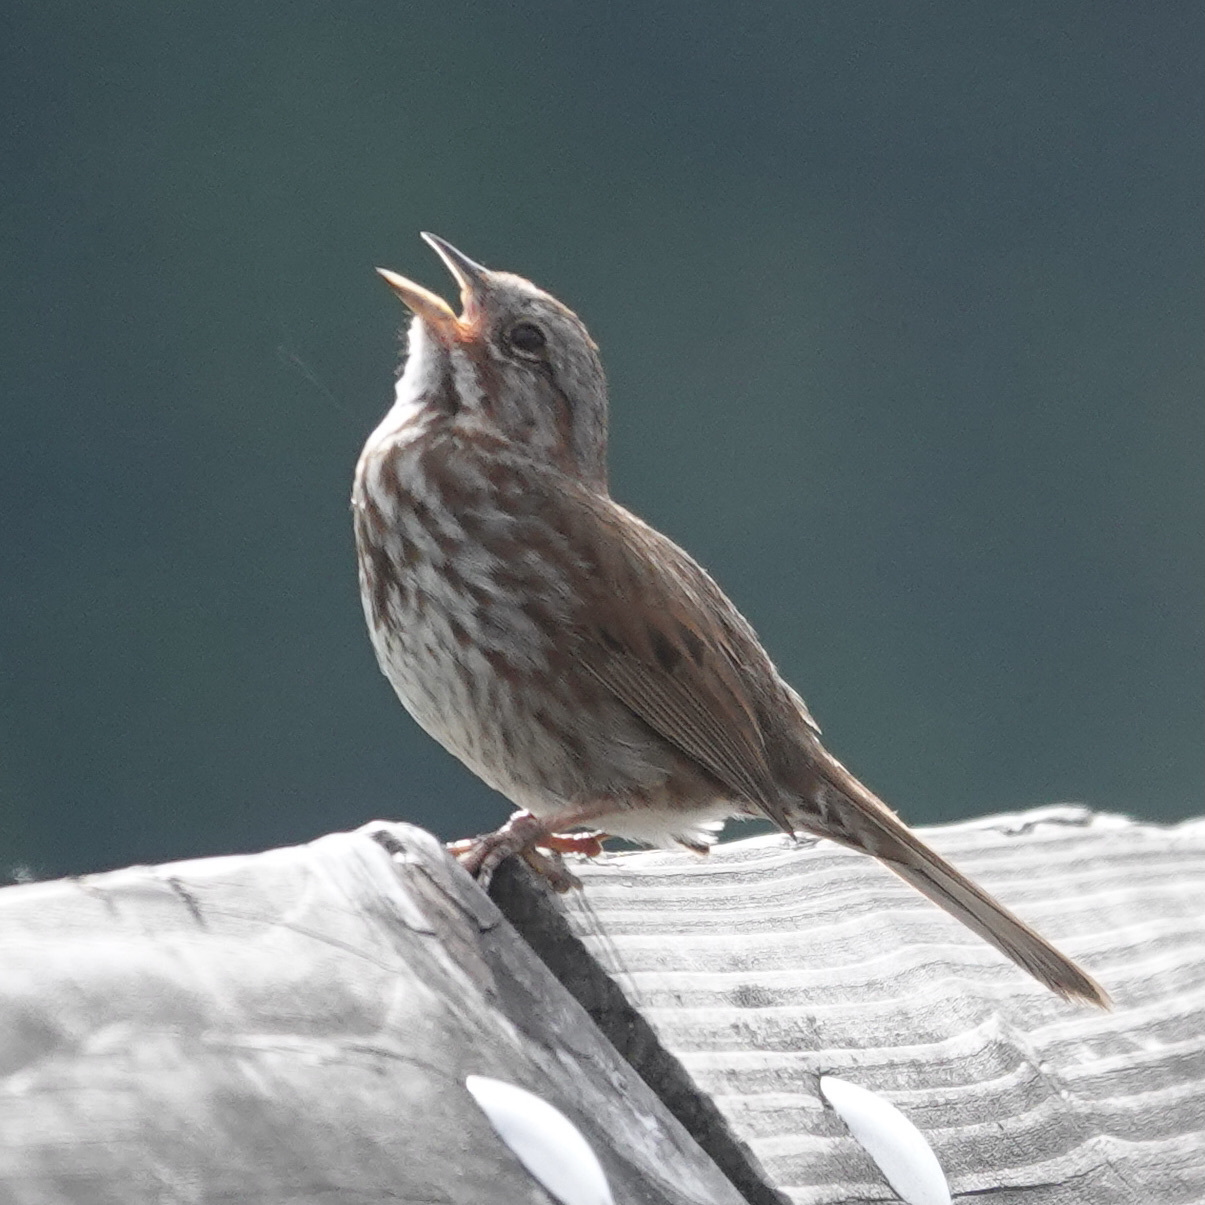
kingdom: Animalia
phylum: Chordata
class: Aves
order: Passeriformes
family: Passerellidae
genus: Melospiza
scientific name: Melospiza melodia
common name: Song sparrow
